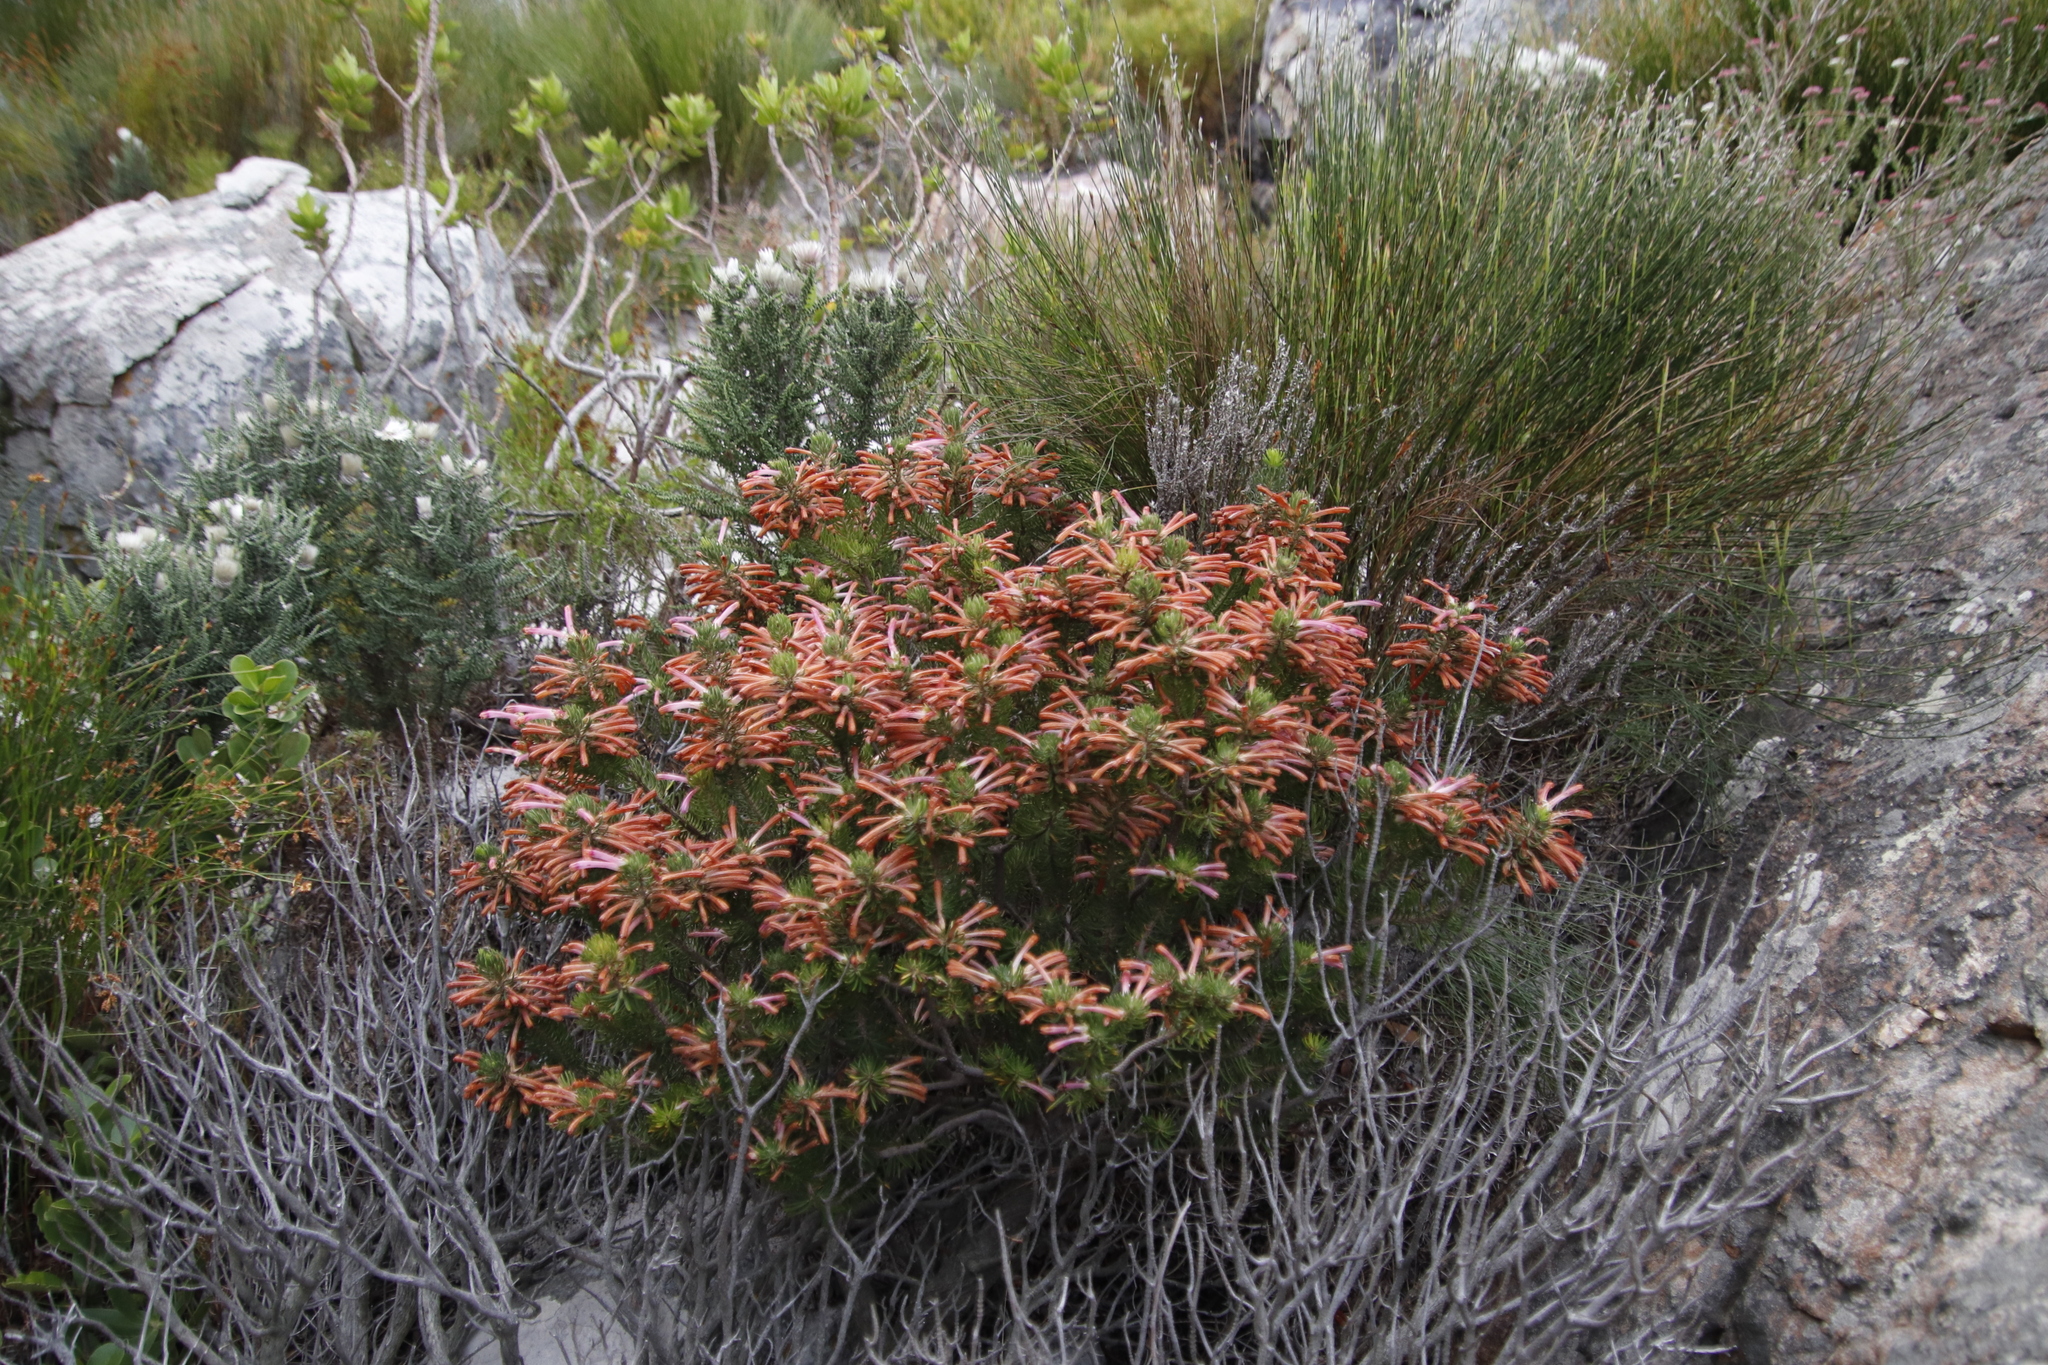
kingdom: Plantae
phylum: Tracheophyta
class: Magnoliopsida
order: Ericales
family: Ericaceae
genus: Erica
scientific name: Erica thomae
